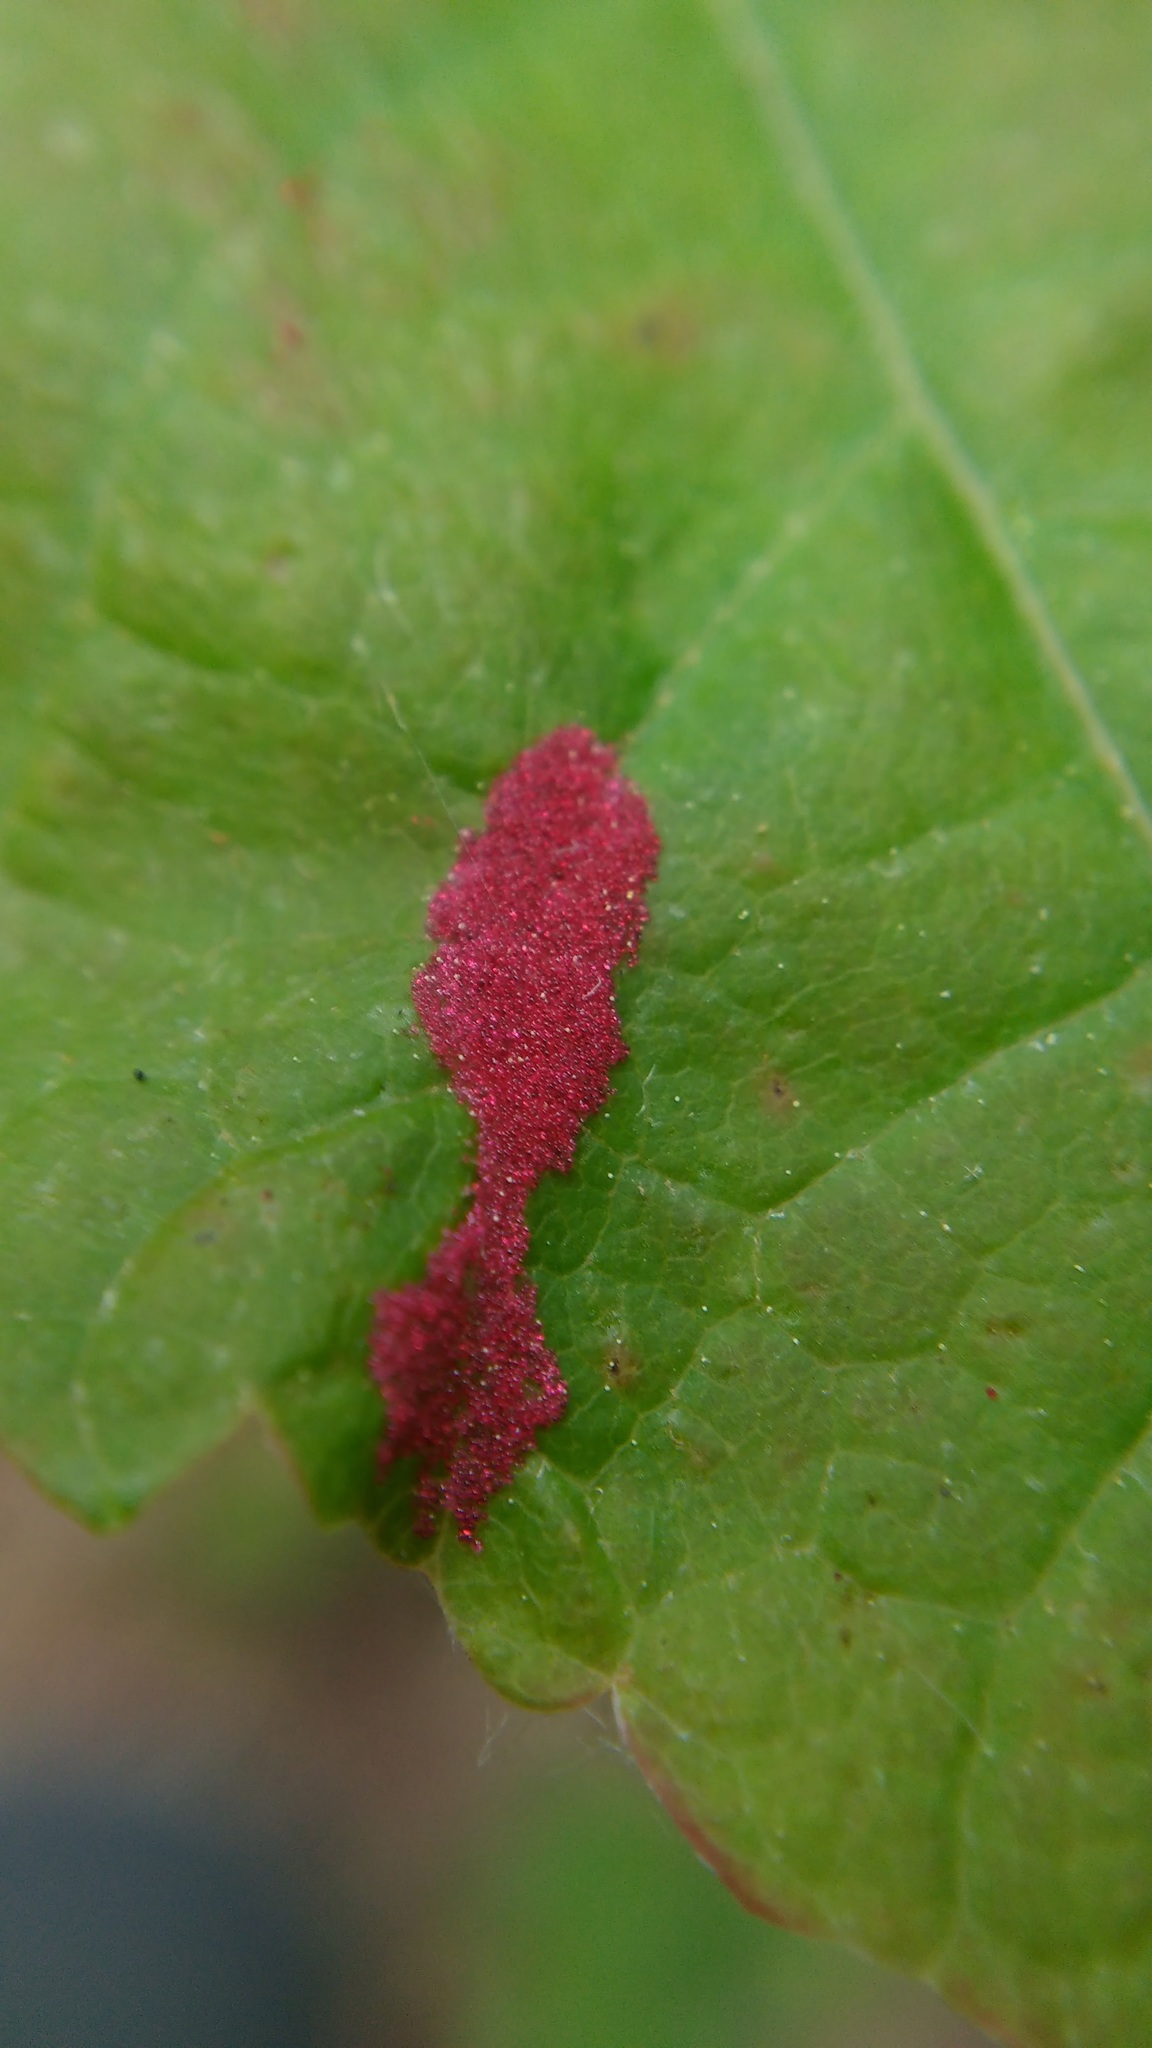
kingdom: Animalia
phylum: Arthropoda
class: Arachnida
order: Trombidiformes
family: Eriophyidae
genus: Aculus
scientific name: Aculus
